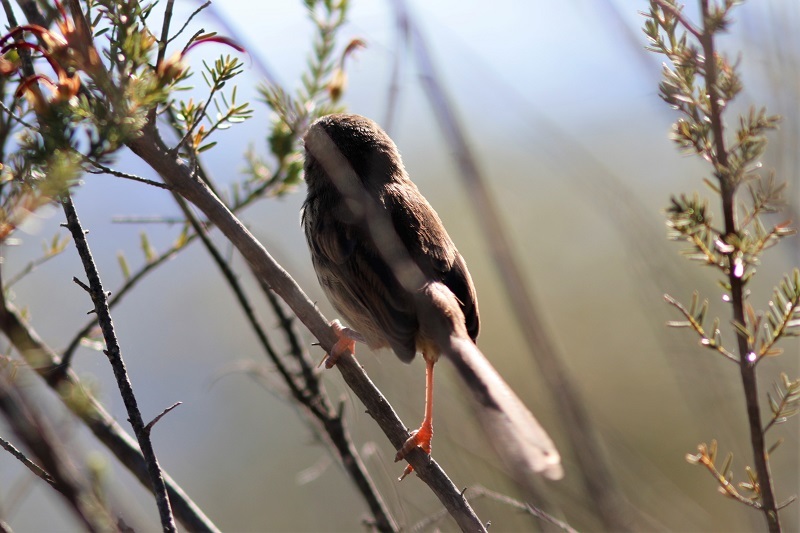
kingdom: Animalia
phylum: Chordata
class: Aves
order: Passeriformes
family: Cisticolidae
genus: Prinia
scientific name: Prinia maculosa
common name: Karoo prinia
